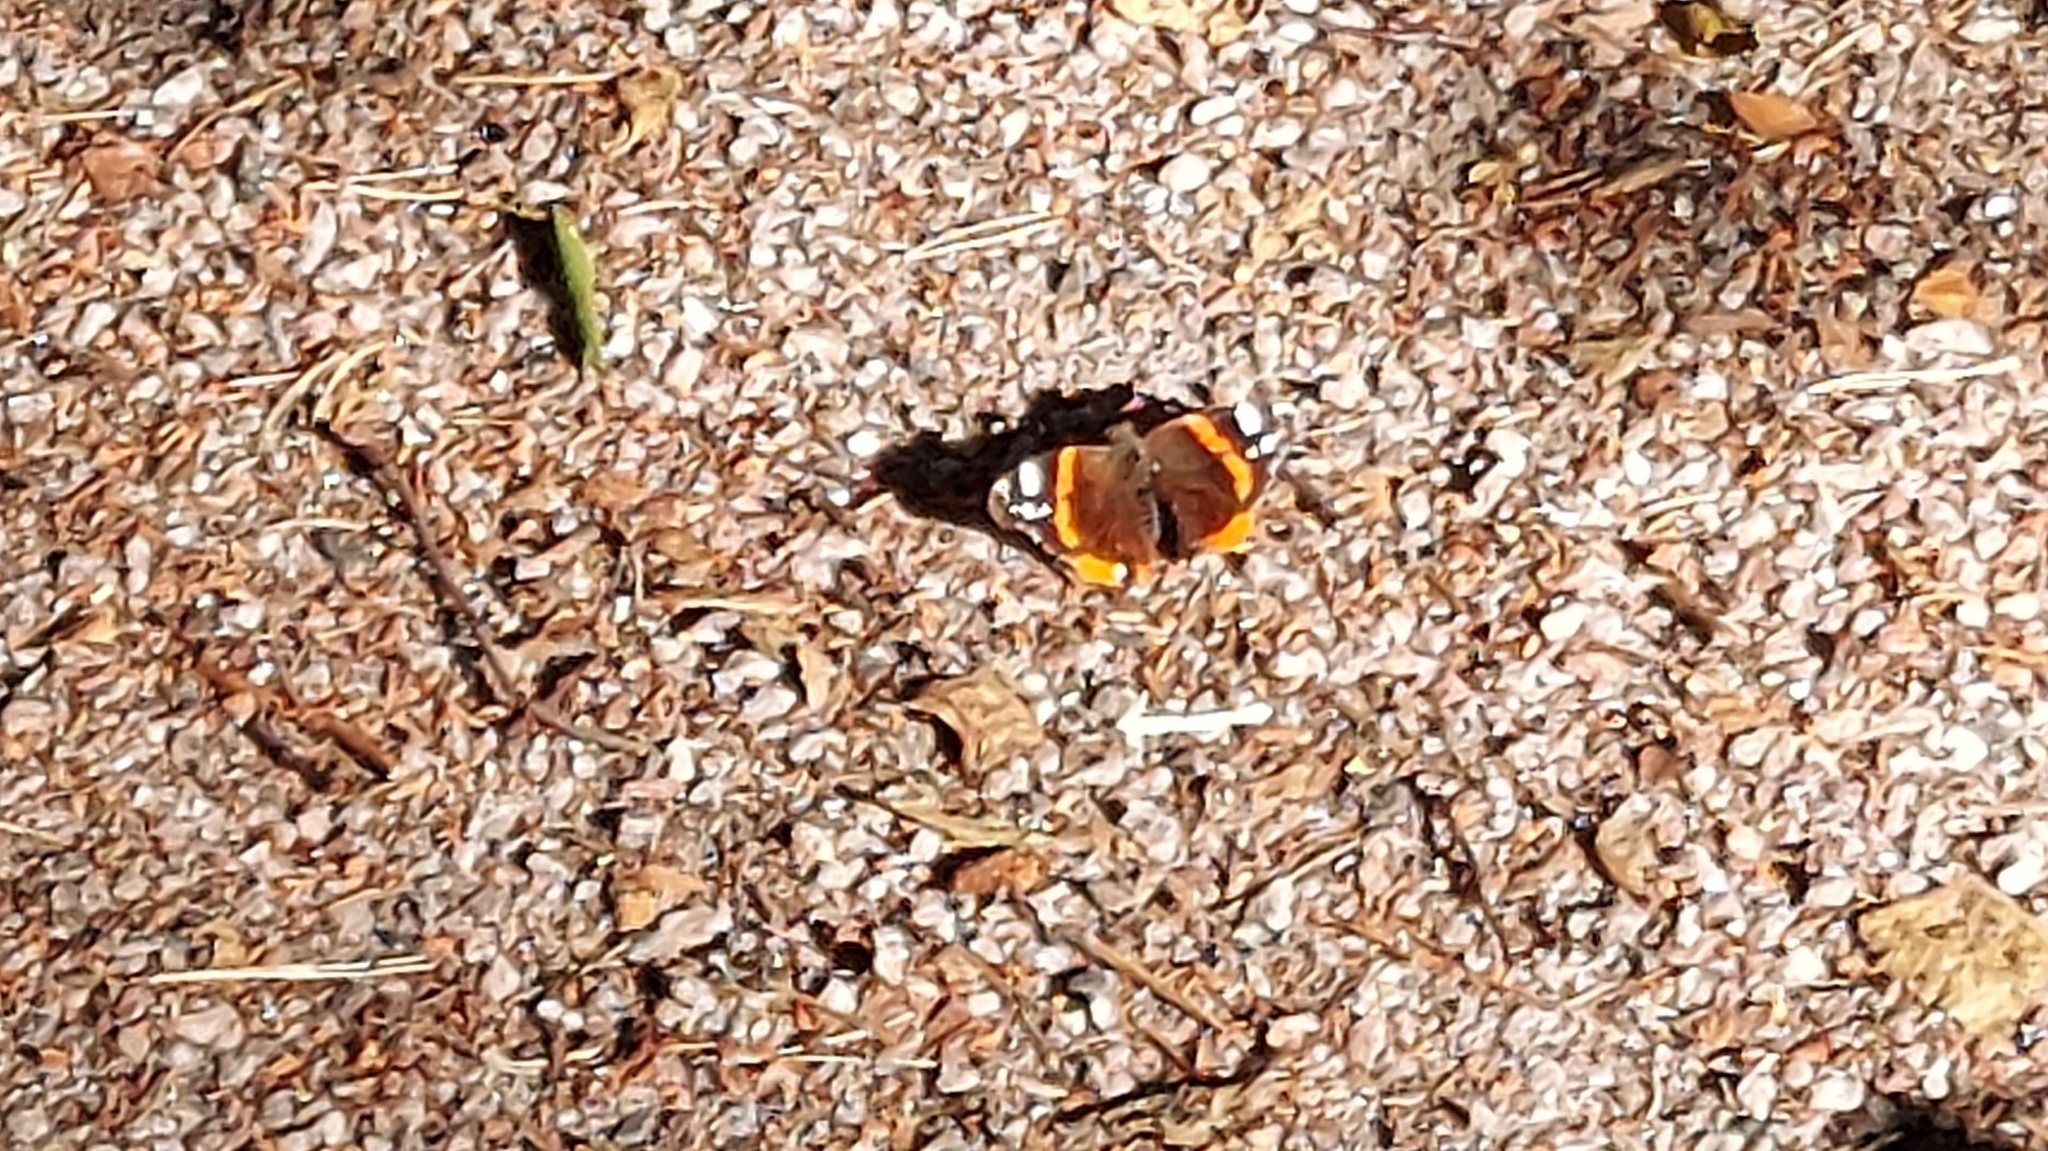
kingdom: Animalia
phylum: Arthropoda
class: Insecta
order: Lepidoptera
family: Nymphalidae
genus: Vanessa
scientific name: Vanessa atalanta
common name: Red admiral
